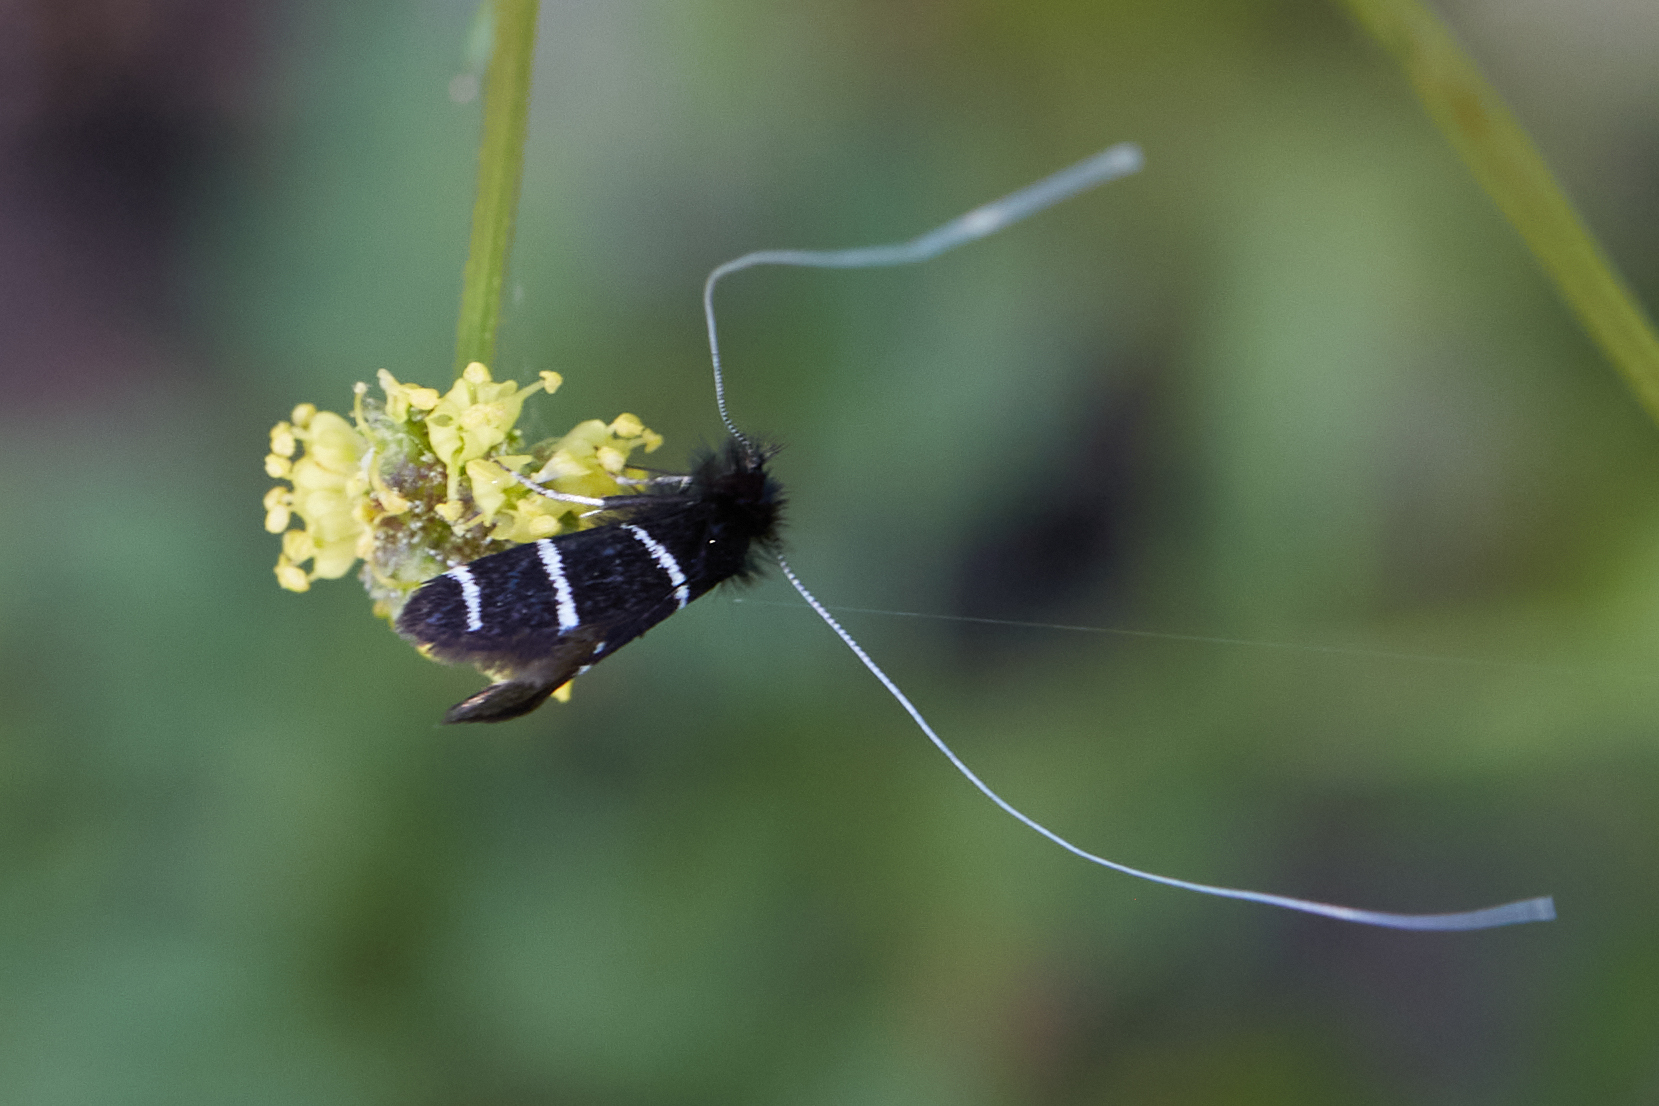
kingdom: Animalia
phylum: Arthropoda
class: Insecta
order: Lepidoptera
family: Adelidae
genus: Adela
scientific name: Adela trigrapha
